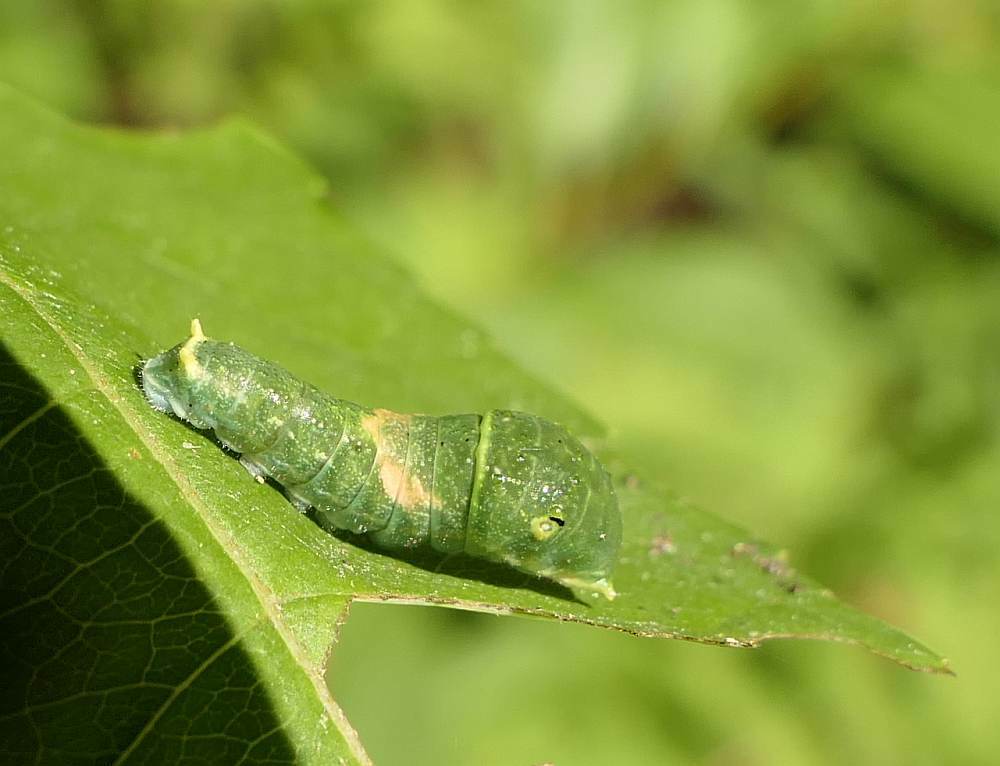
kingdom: Animalia
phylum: Arthropoda
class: Insecta
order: Lepidoptera
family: Papilionidae
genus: Papilio
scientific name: Papilio canadensis
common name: Canadian tiger swallowtail
